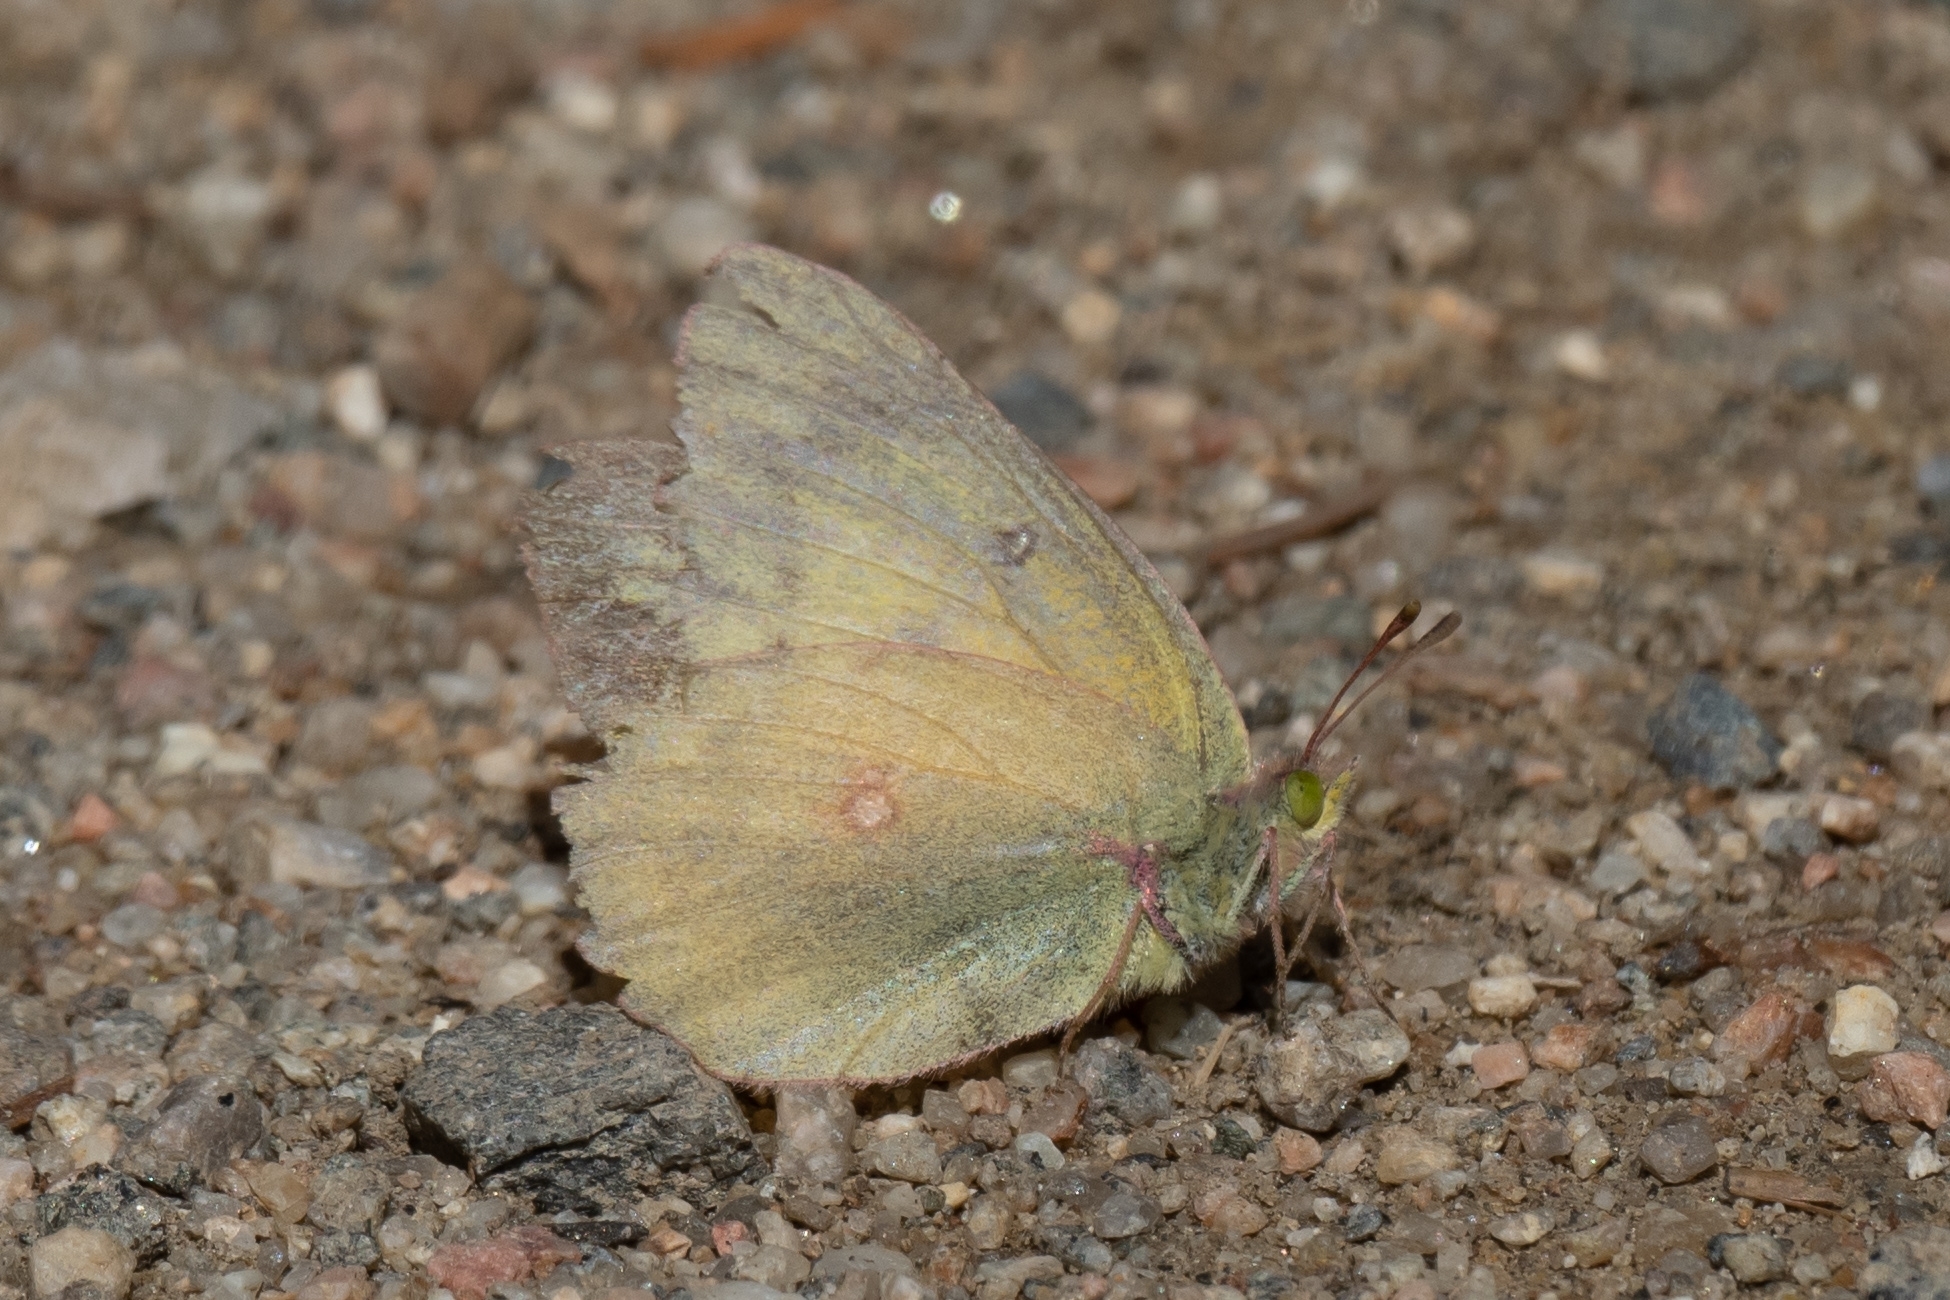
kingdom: Animalia
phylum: Arthropoda
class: Insecta
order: Lepidoptera
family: Pieridae
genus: Colias
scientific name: Colias eurytheme
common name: Alfalfa butterfly
